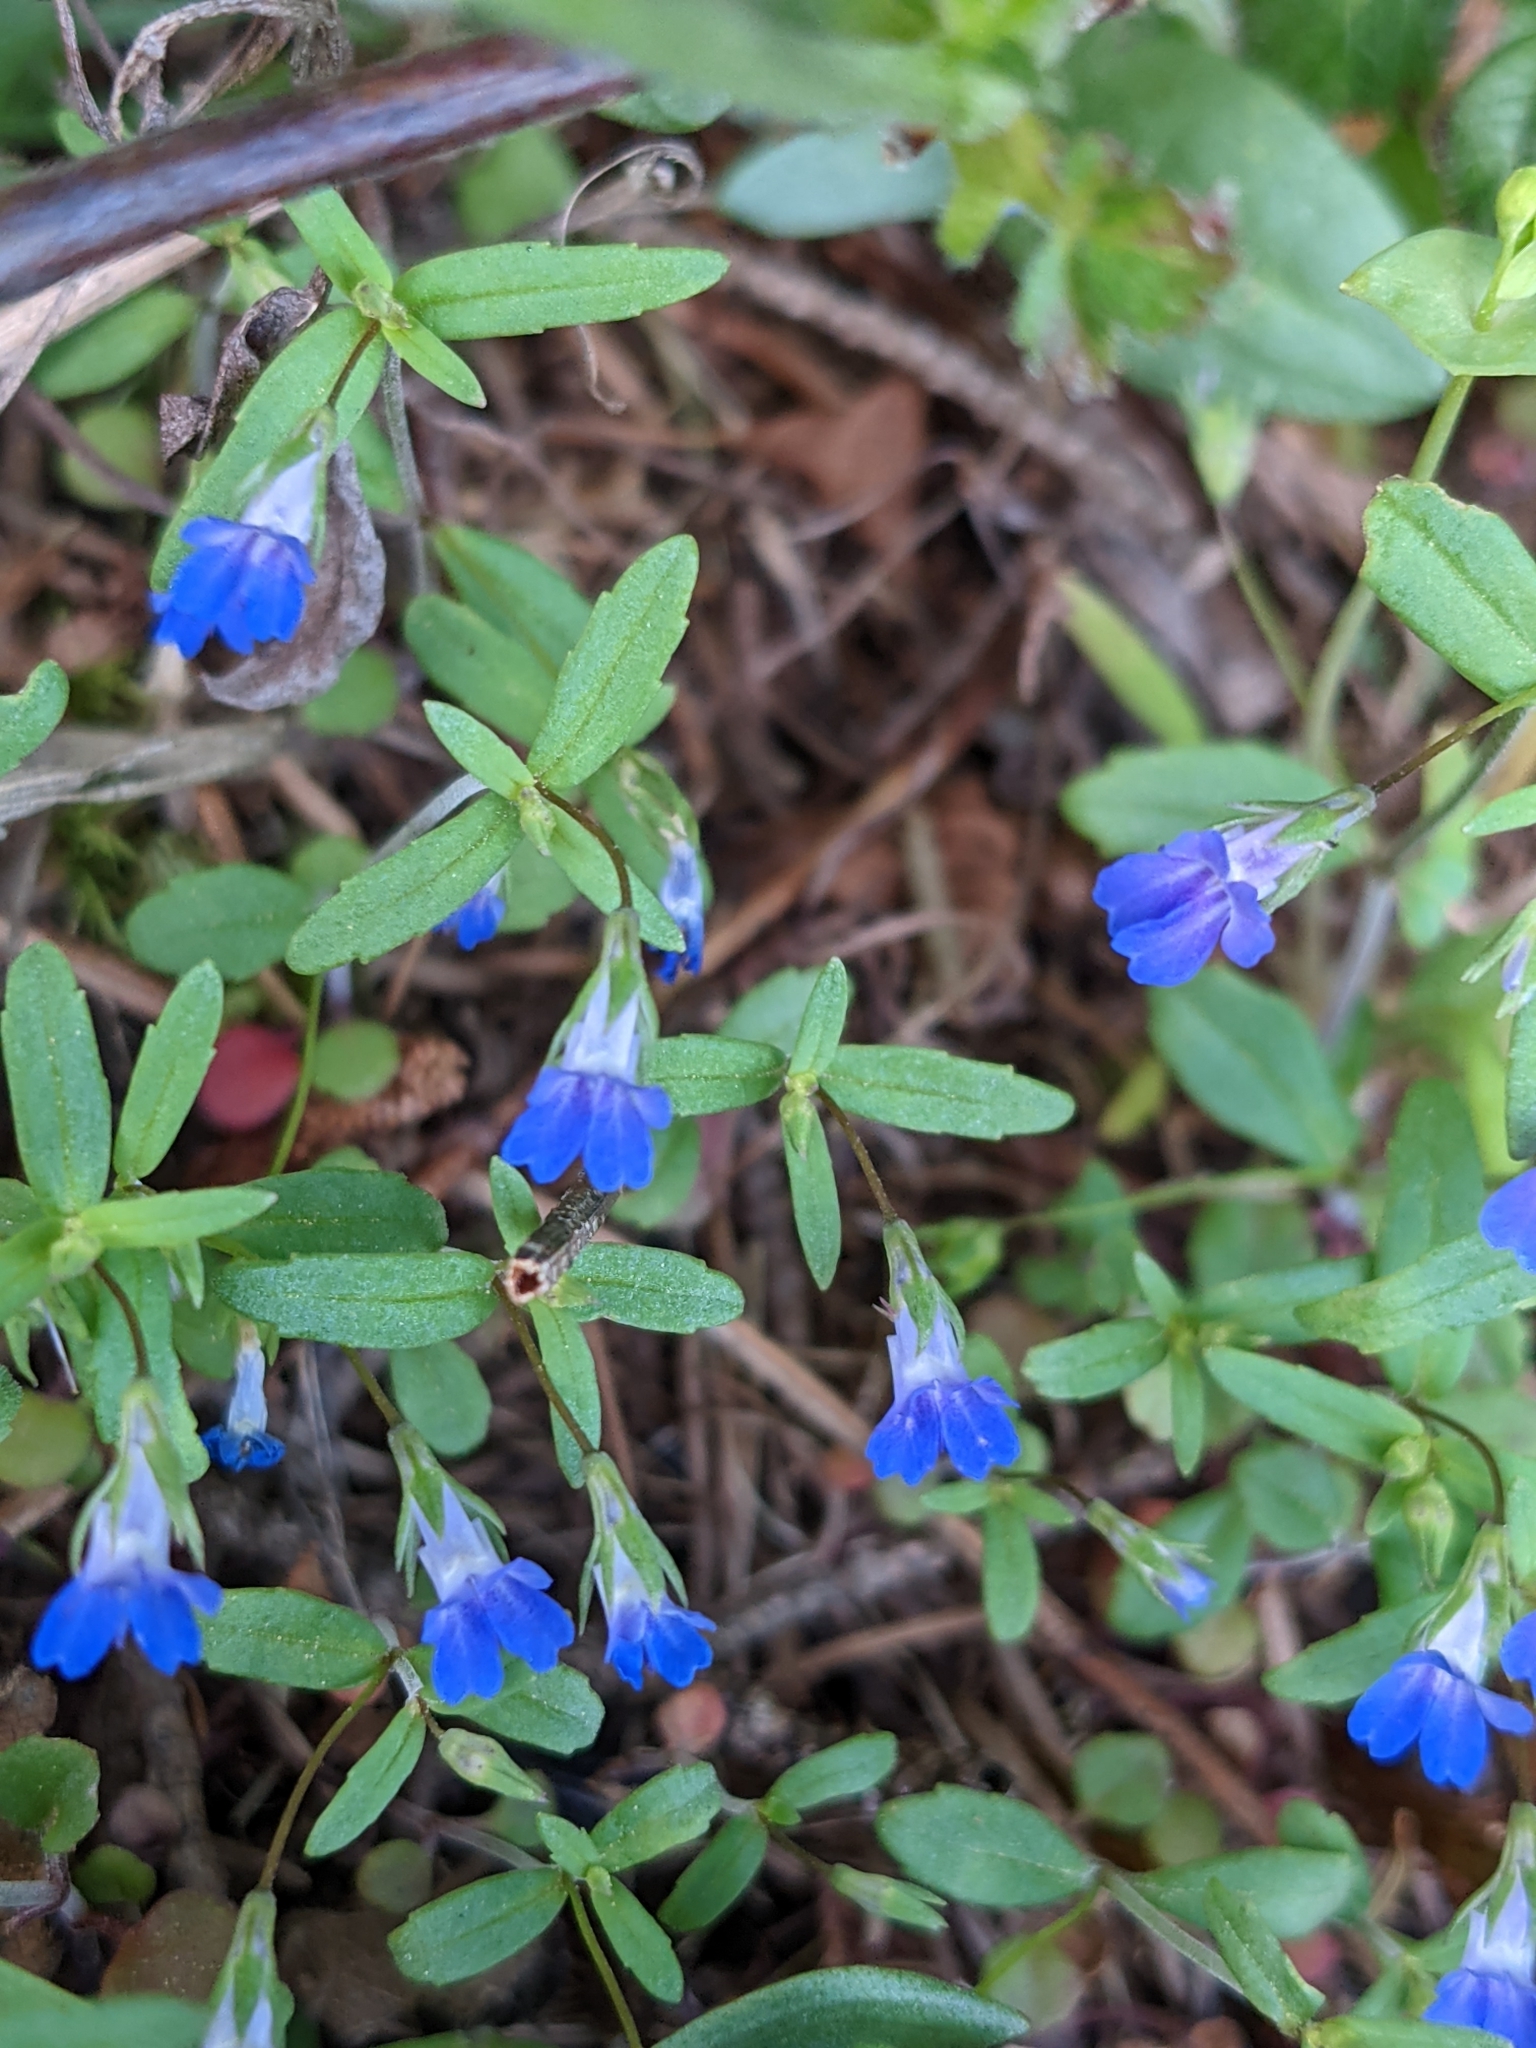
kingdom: Plantae
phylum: Tracheophyta
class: Magnoliopsida
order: Lamiales
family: Plantaginaceae
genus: Collinsia
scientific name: Collinsia parviflora
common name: Blue-lips
